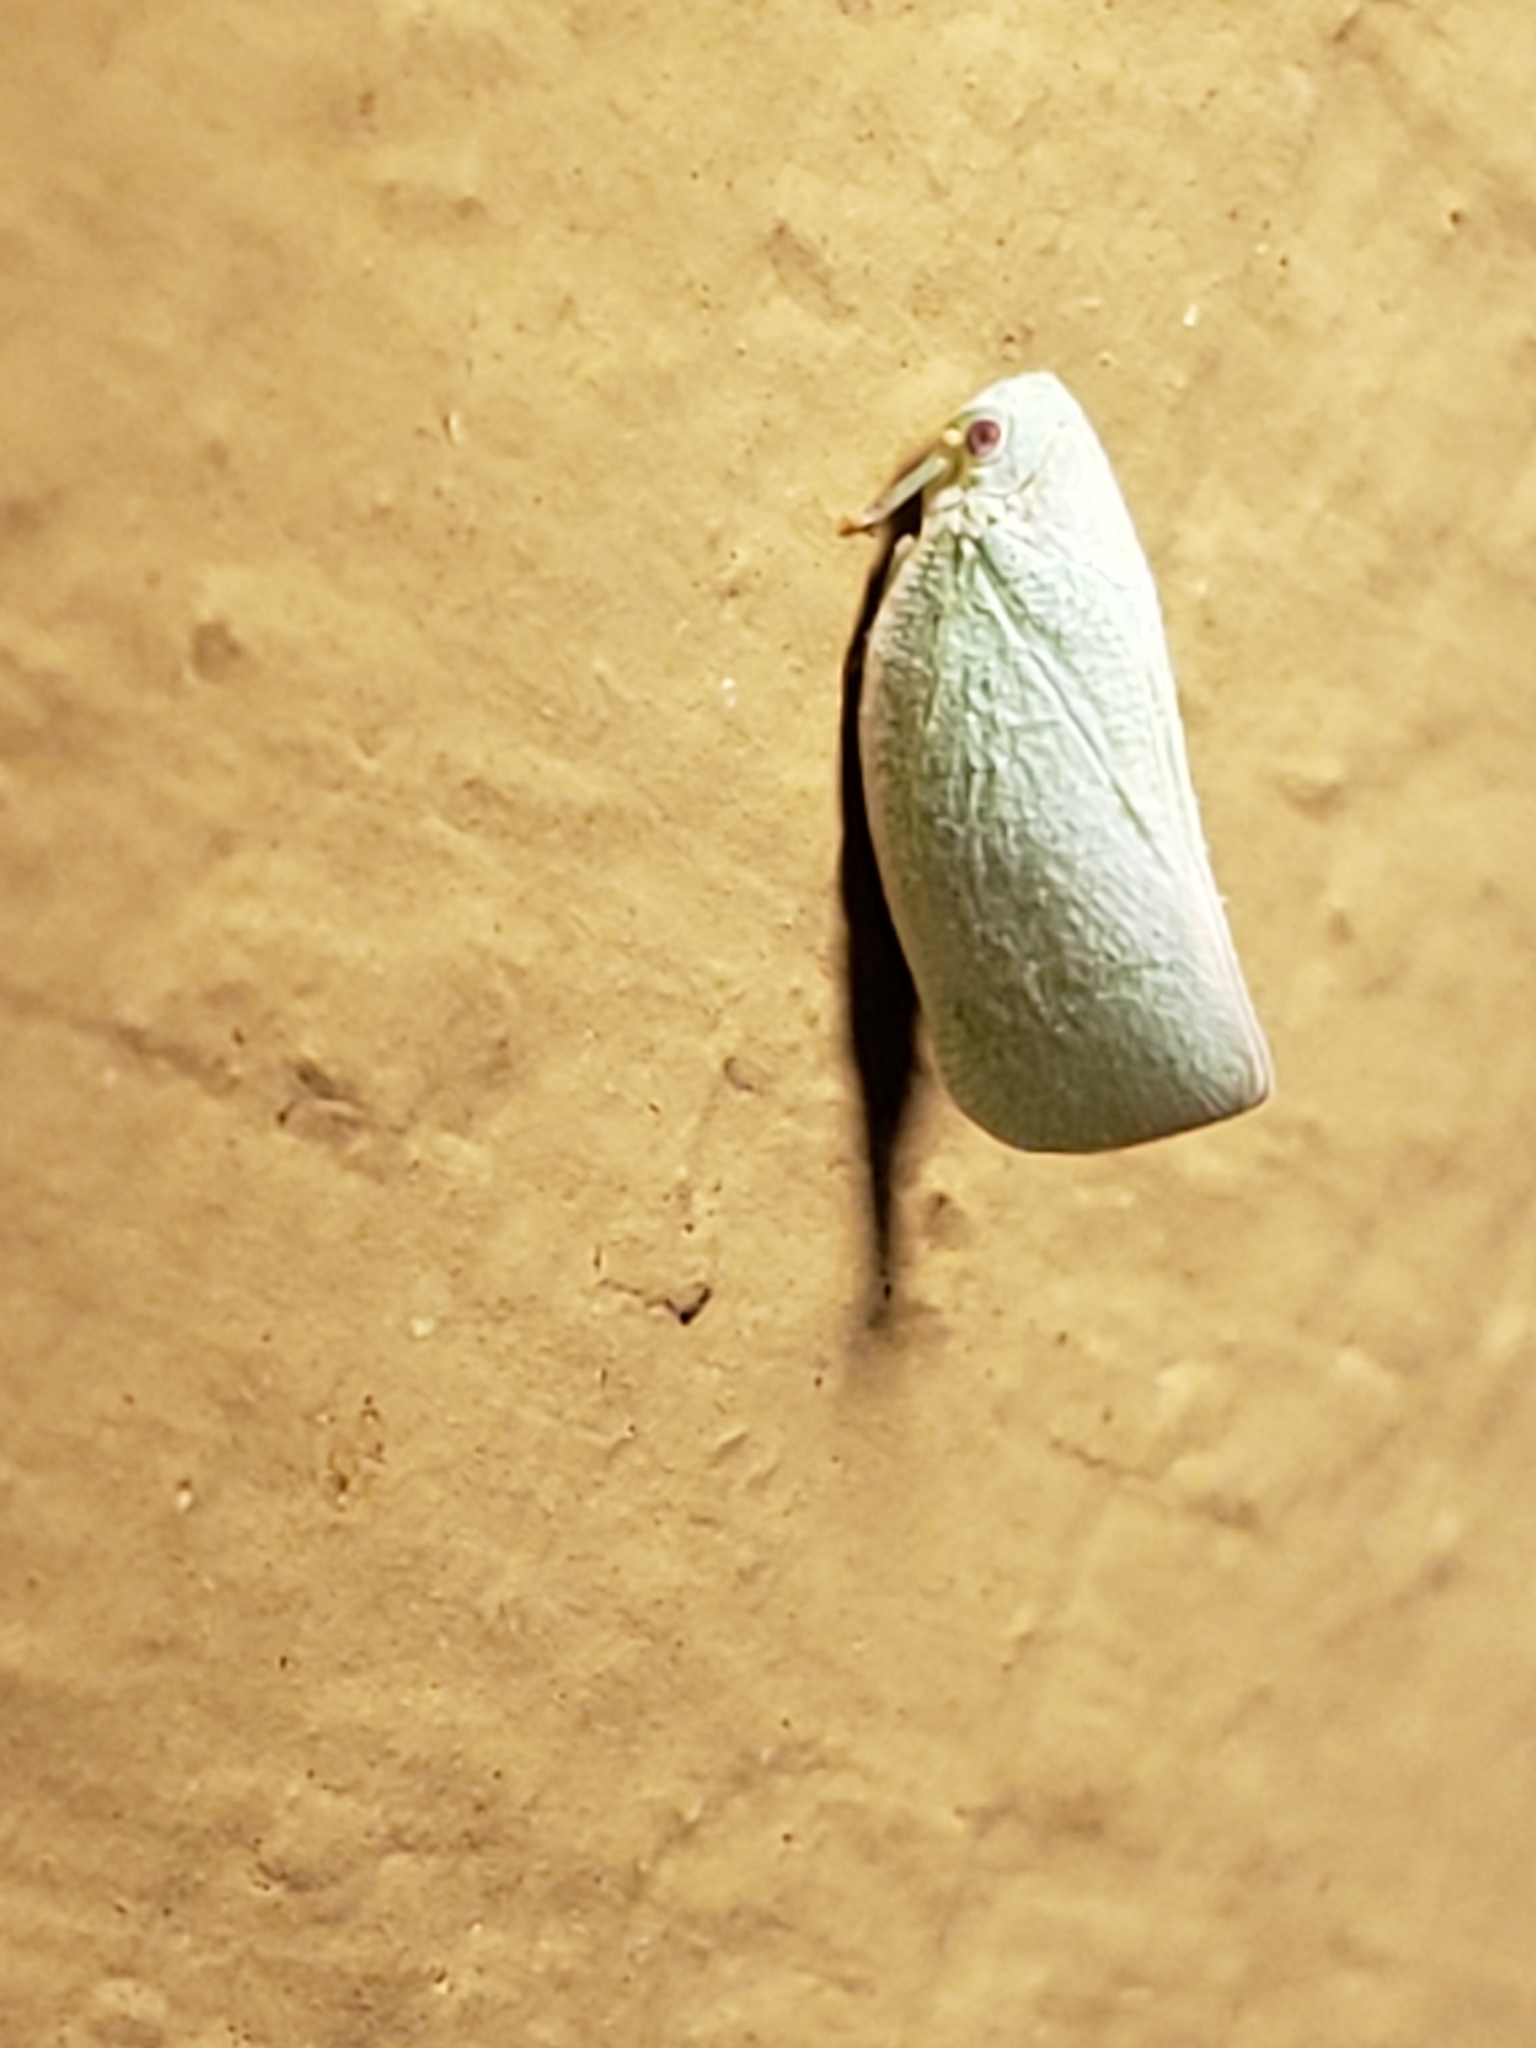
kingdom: Animalia
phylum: Arthropoda
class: Insecta
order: Hemiptera
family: Flatidae
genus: Flatormenis
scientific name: Flatormenis proxima
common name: Northern flatid planthopper
